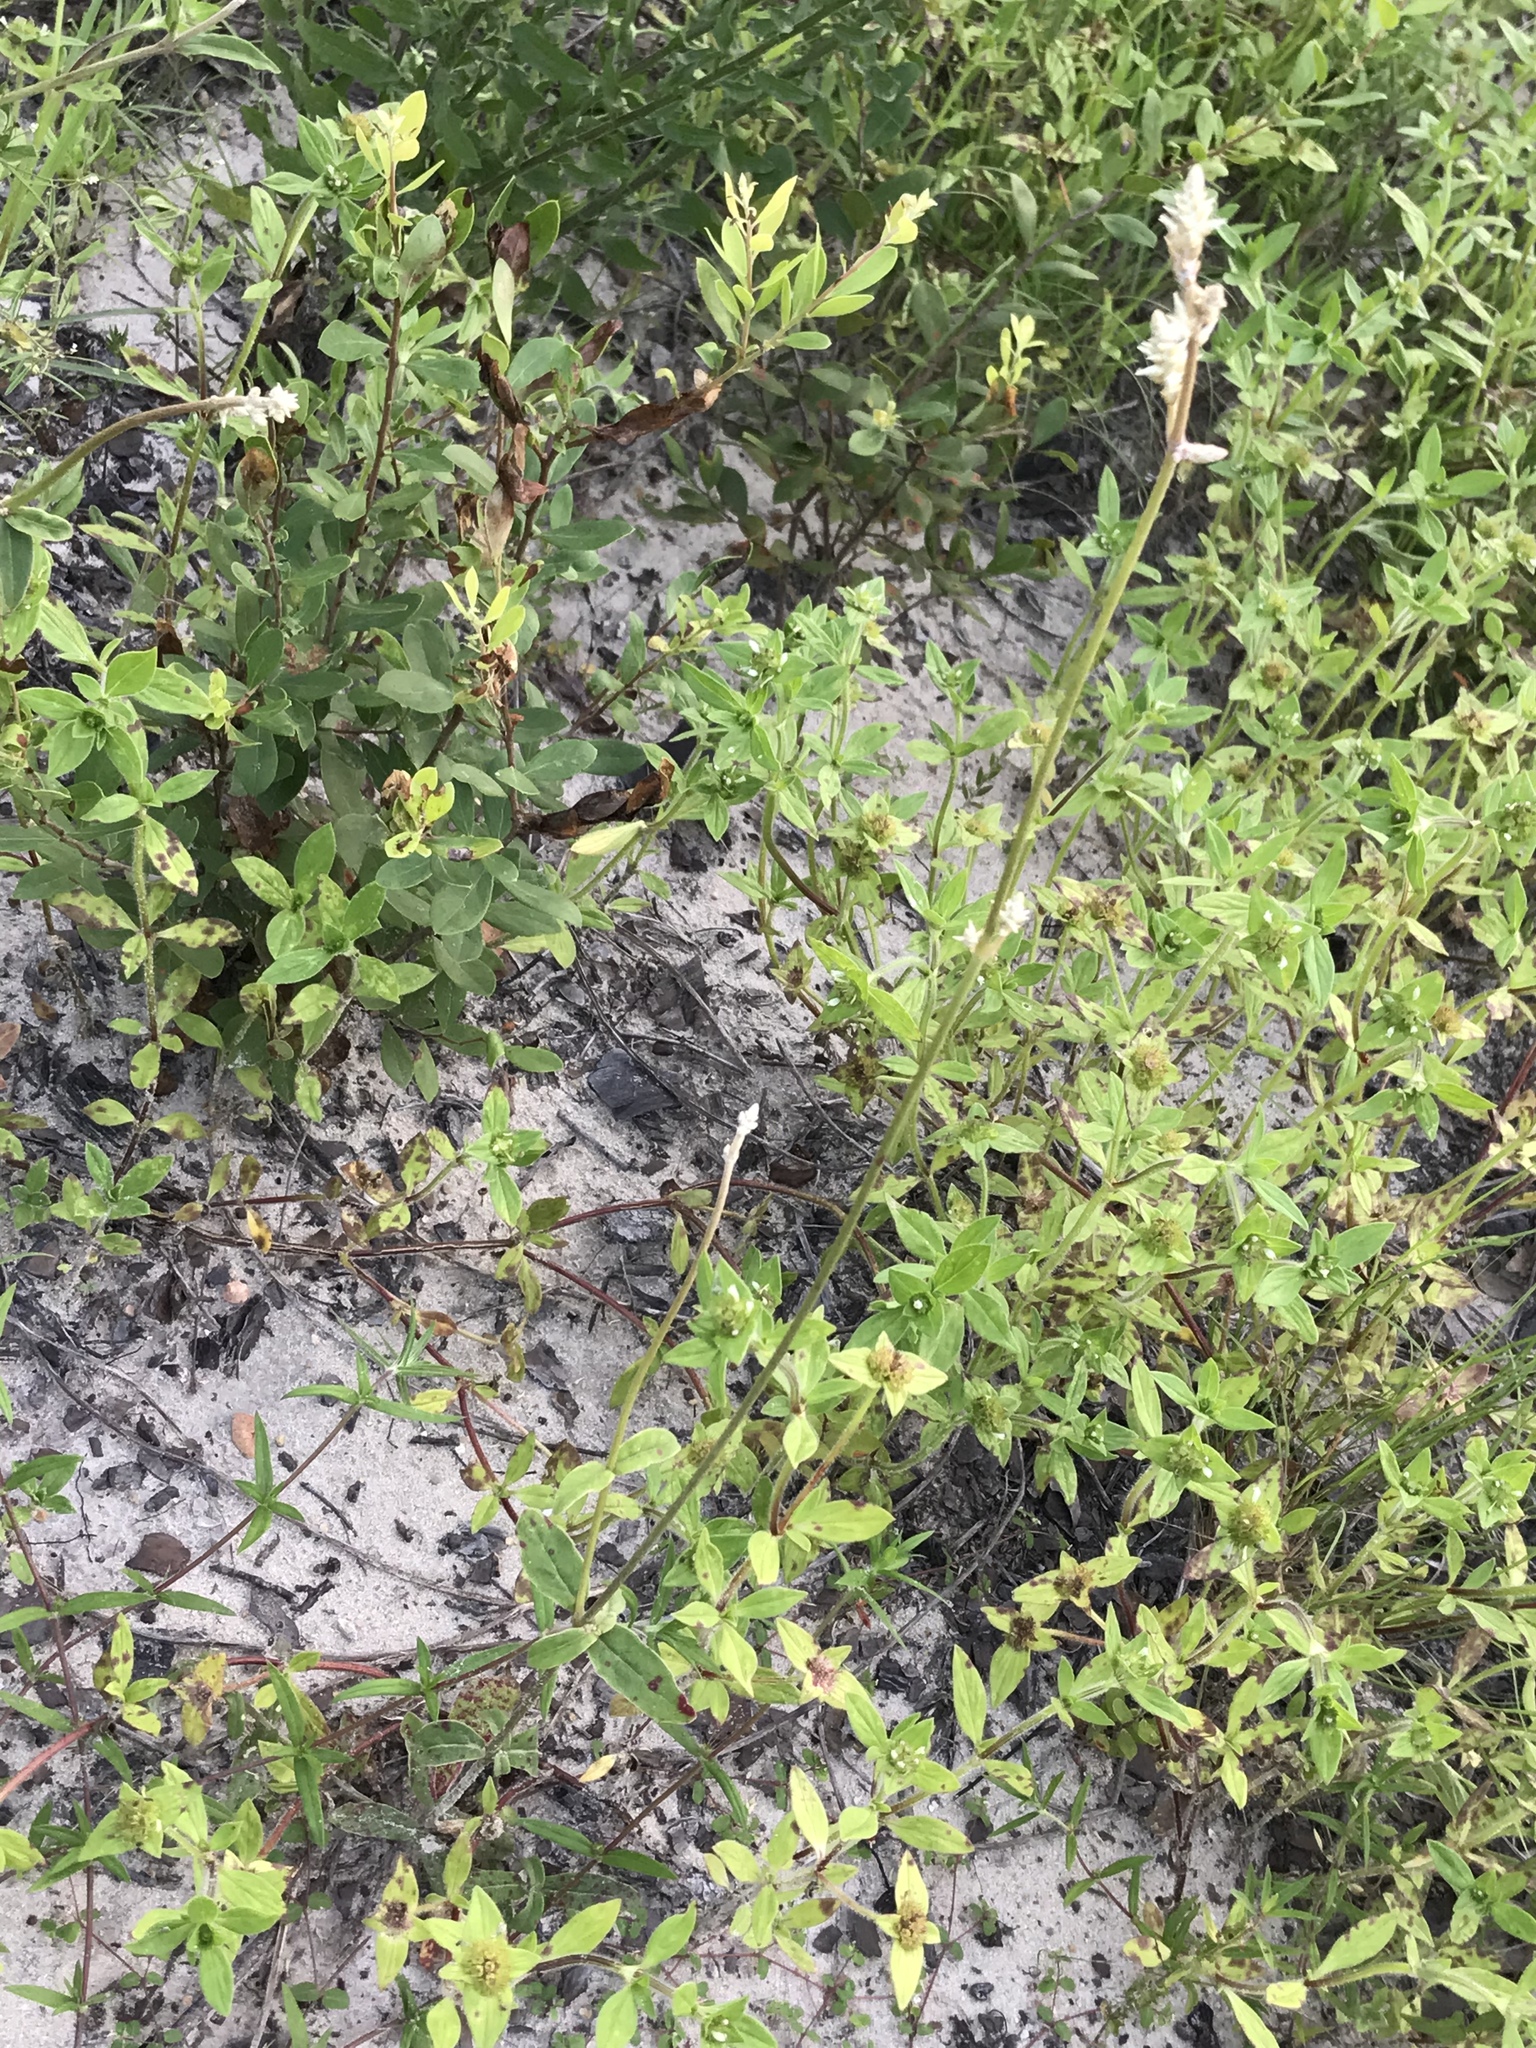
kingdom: Plantae
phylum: Tracheophyta
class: Magnoliopsida
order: Caryophyllales
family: Amaranthaceae
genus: Froelichia
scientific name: Froelichia floridana
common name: Florida snake-cotton
